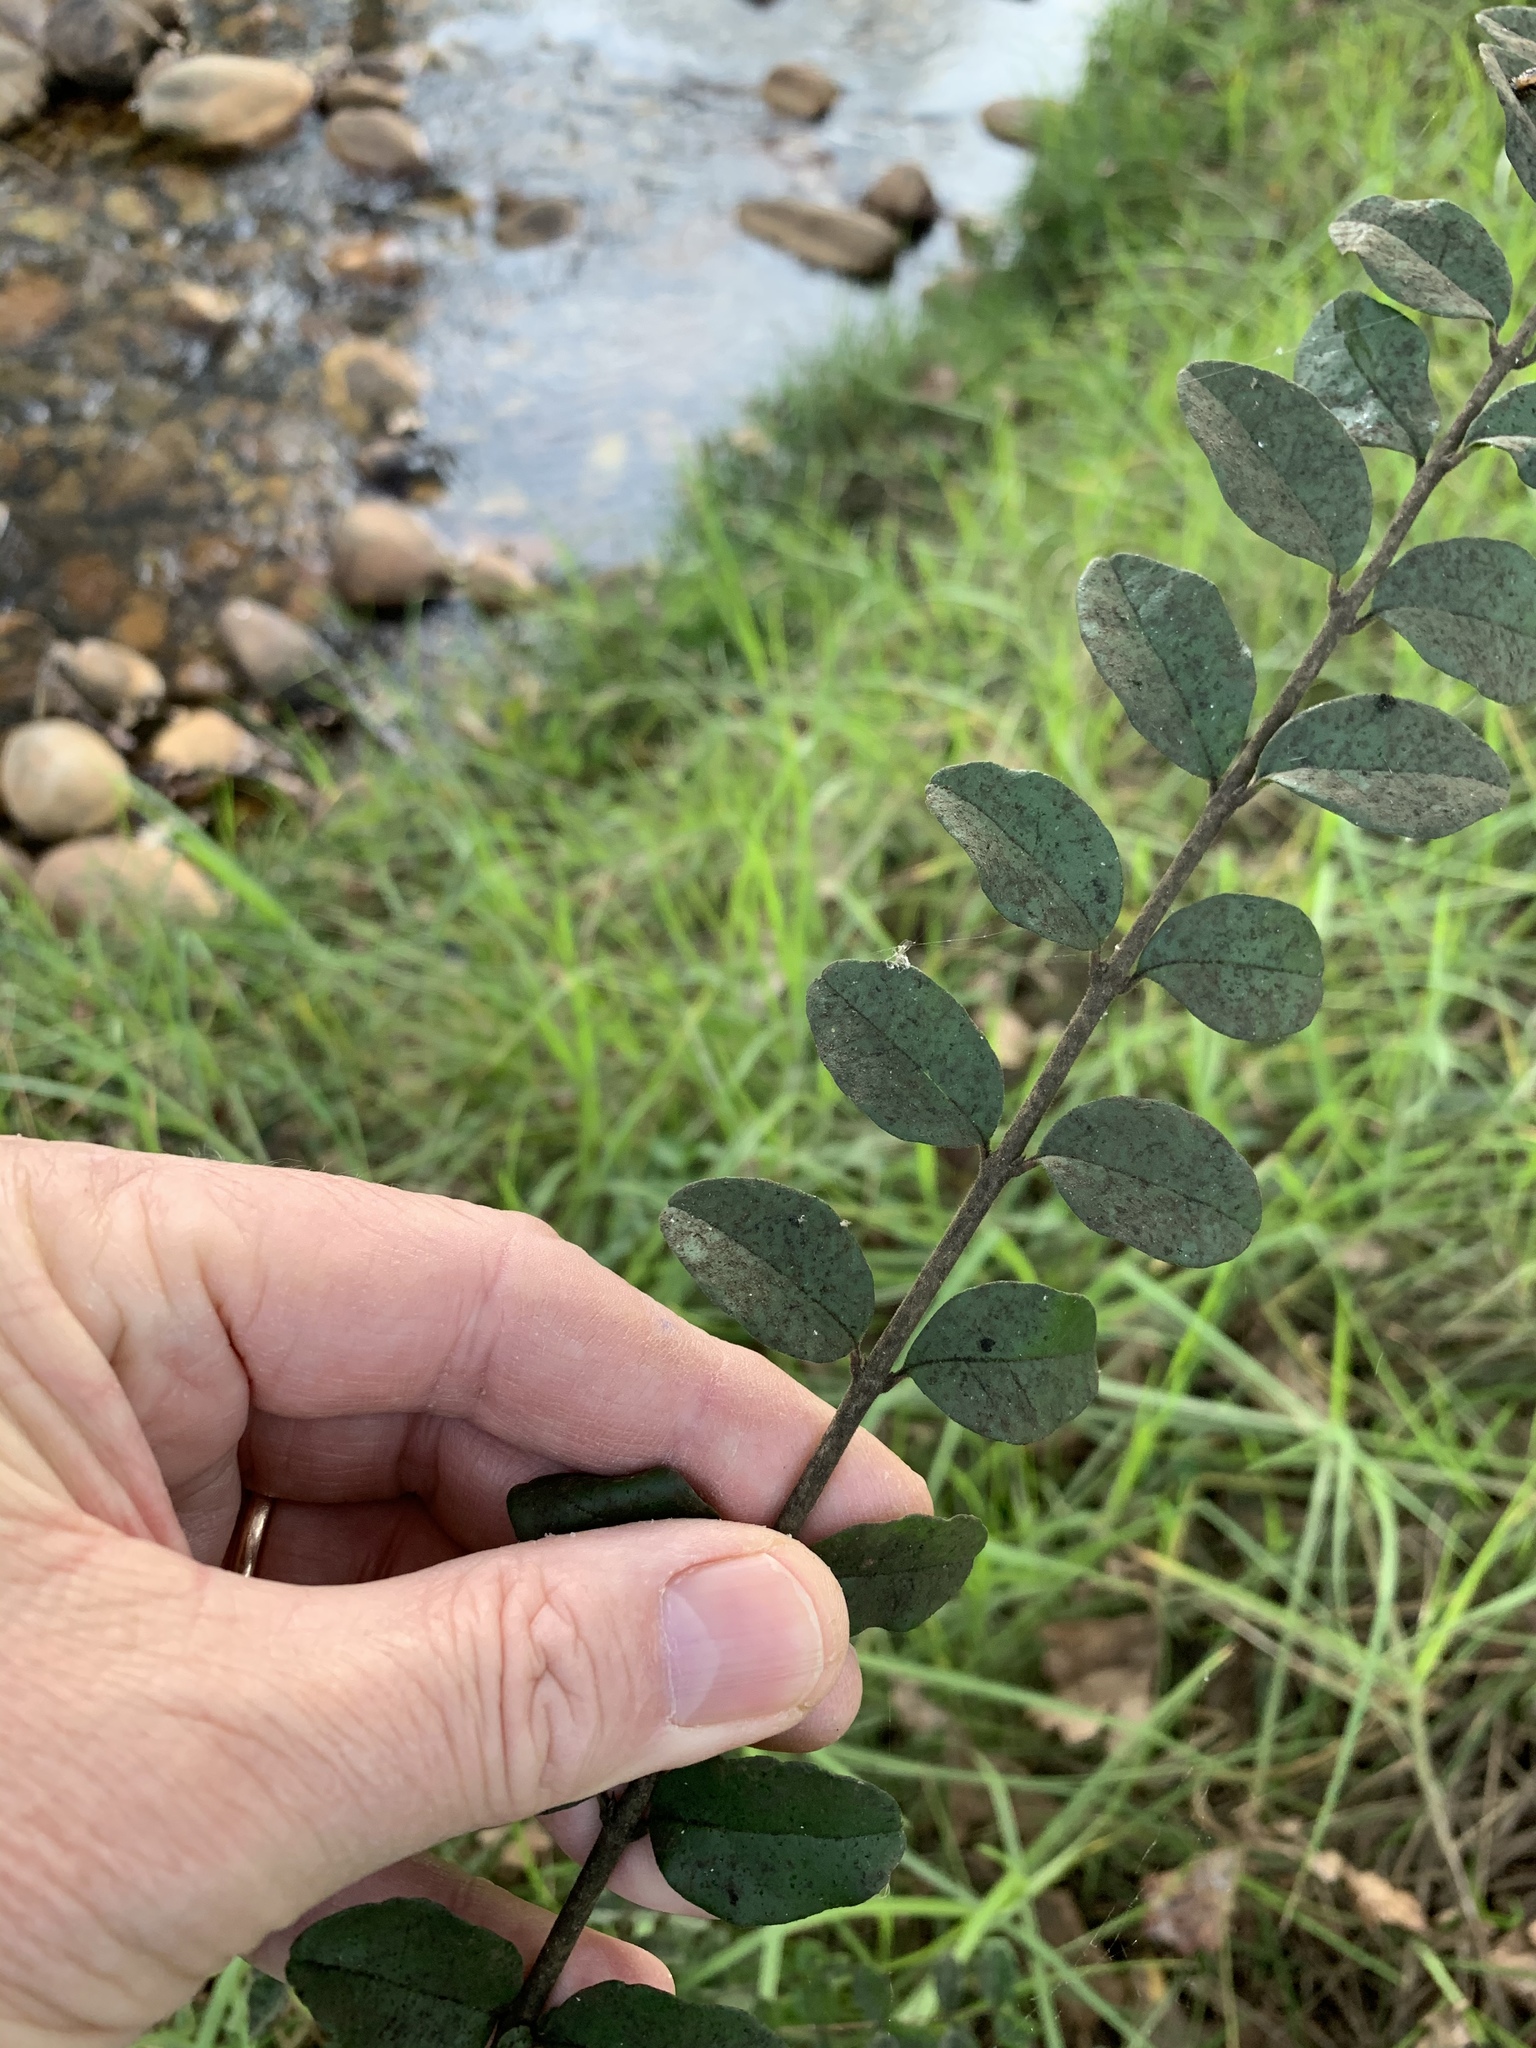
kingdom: Plantae
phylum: Tracheophyta
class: Magnoliopsida
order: Lamiales
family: Oleaceae
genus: Ligustrum
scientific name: Ligustrum sinense
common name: Chinese privet
